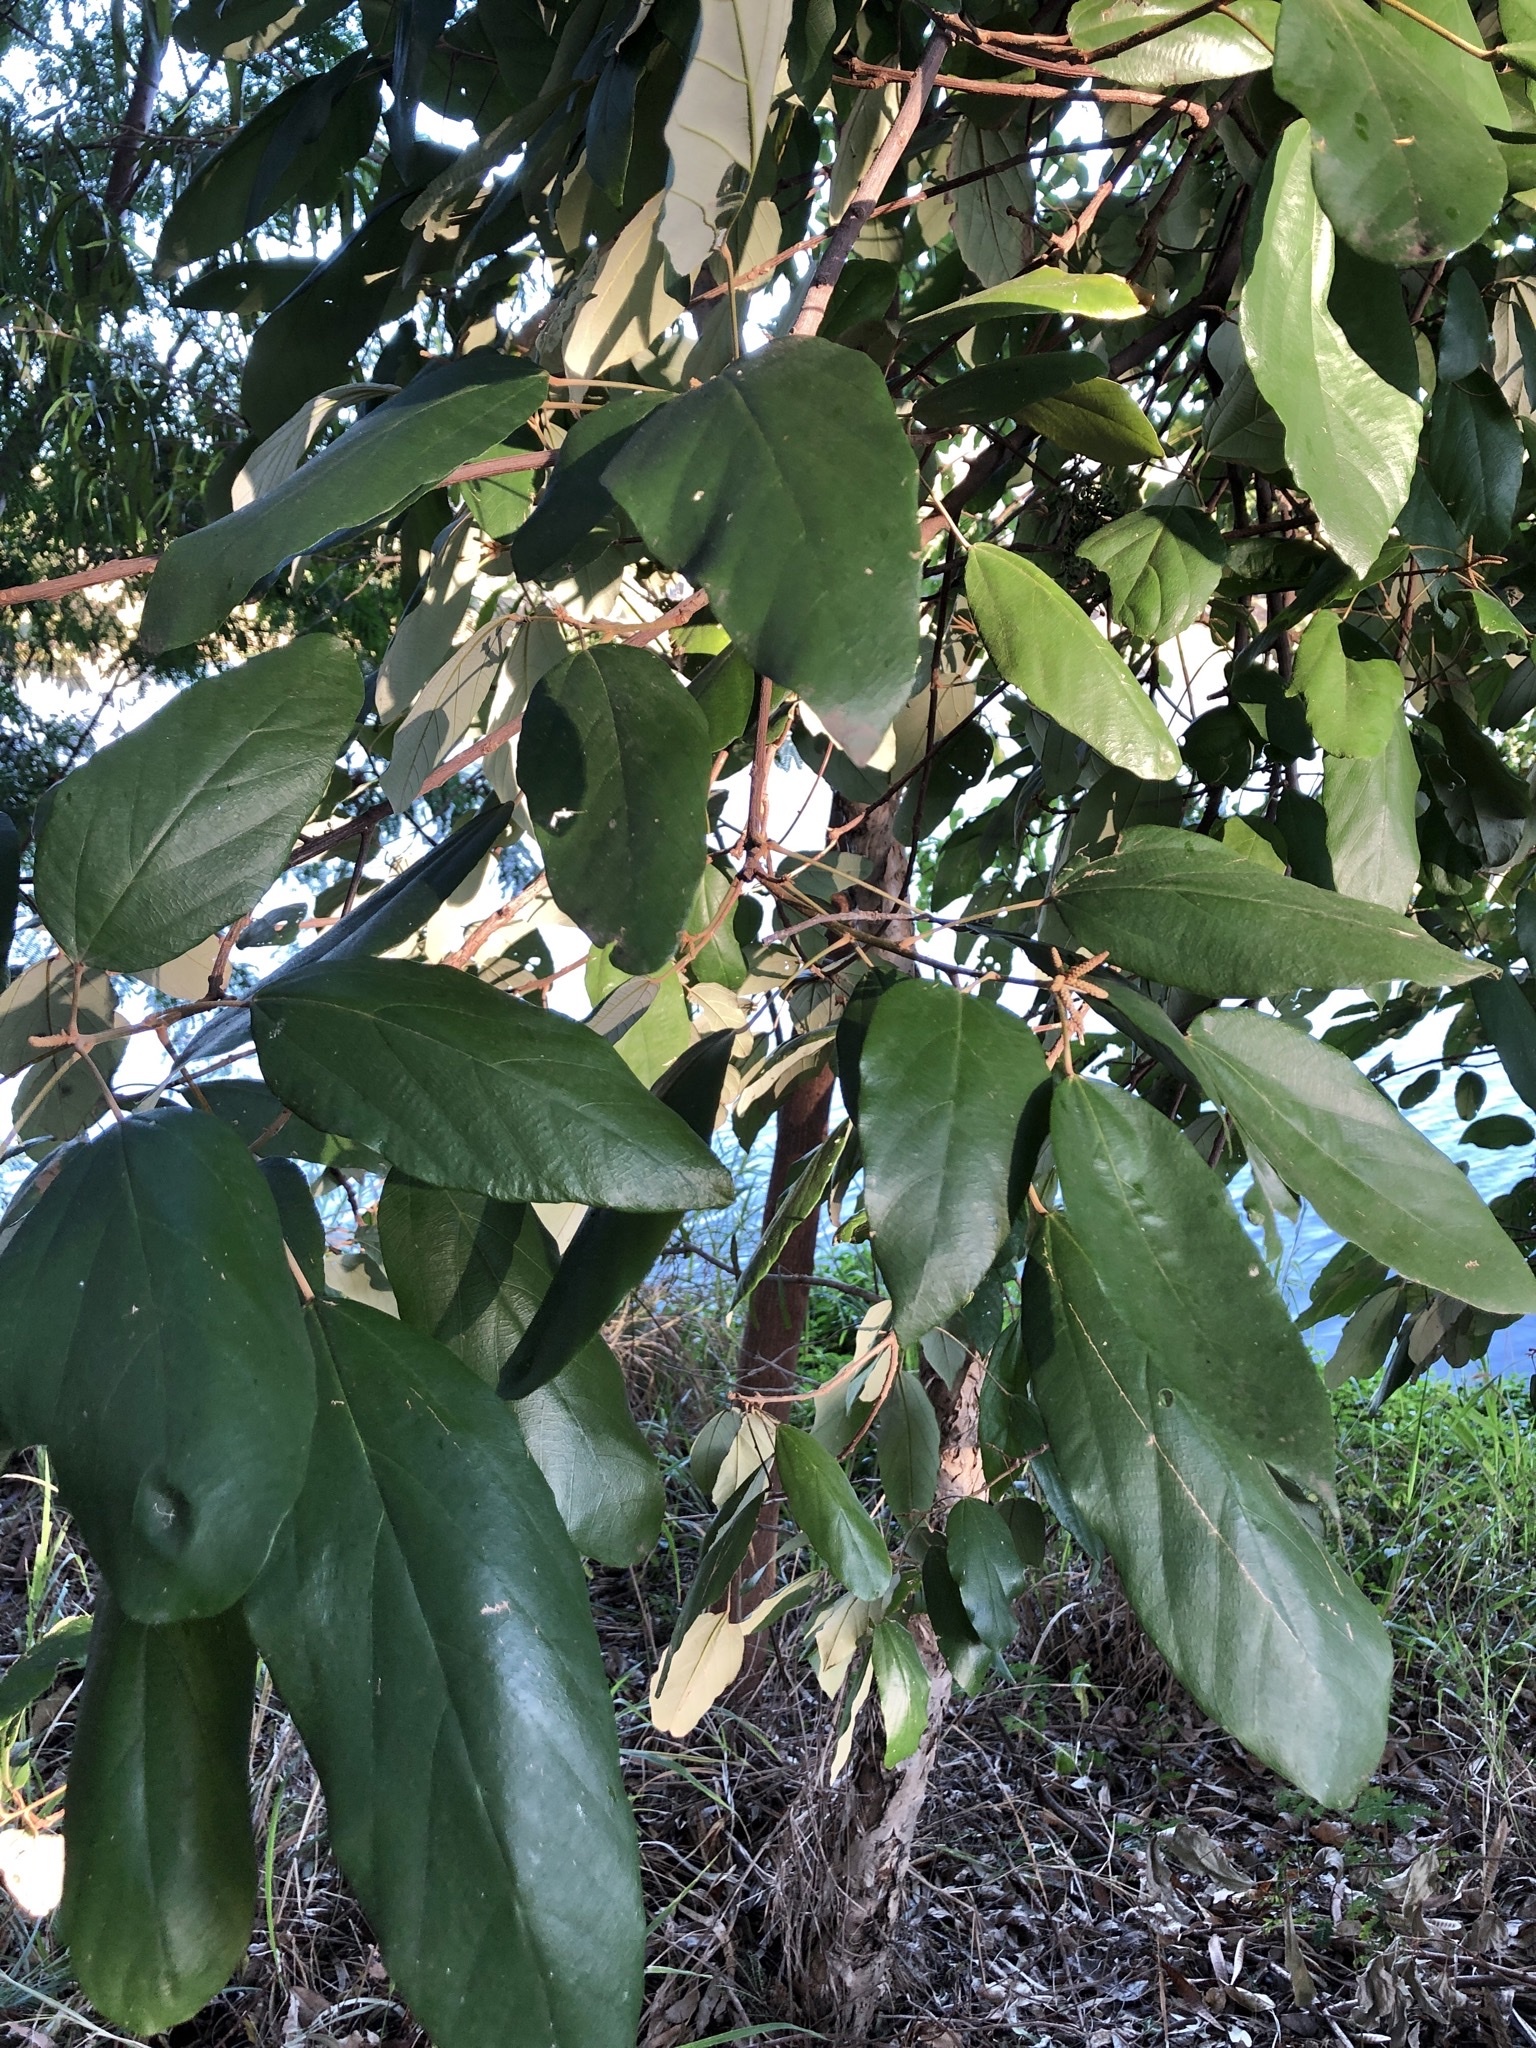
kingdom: Plantae
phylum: Tracheophyta
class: Magnoliopsida
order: Malpighiales
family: Euphorbiaceae
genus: Mallotus
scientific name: Mallotus philippensis
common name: Kamala tree
